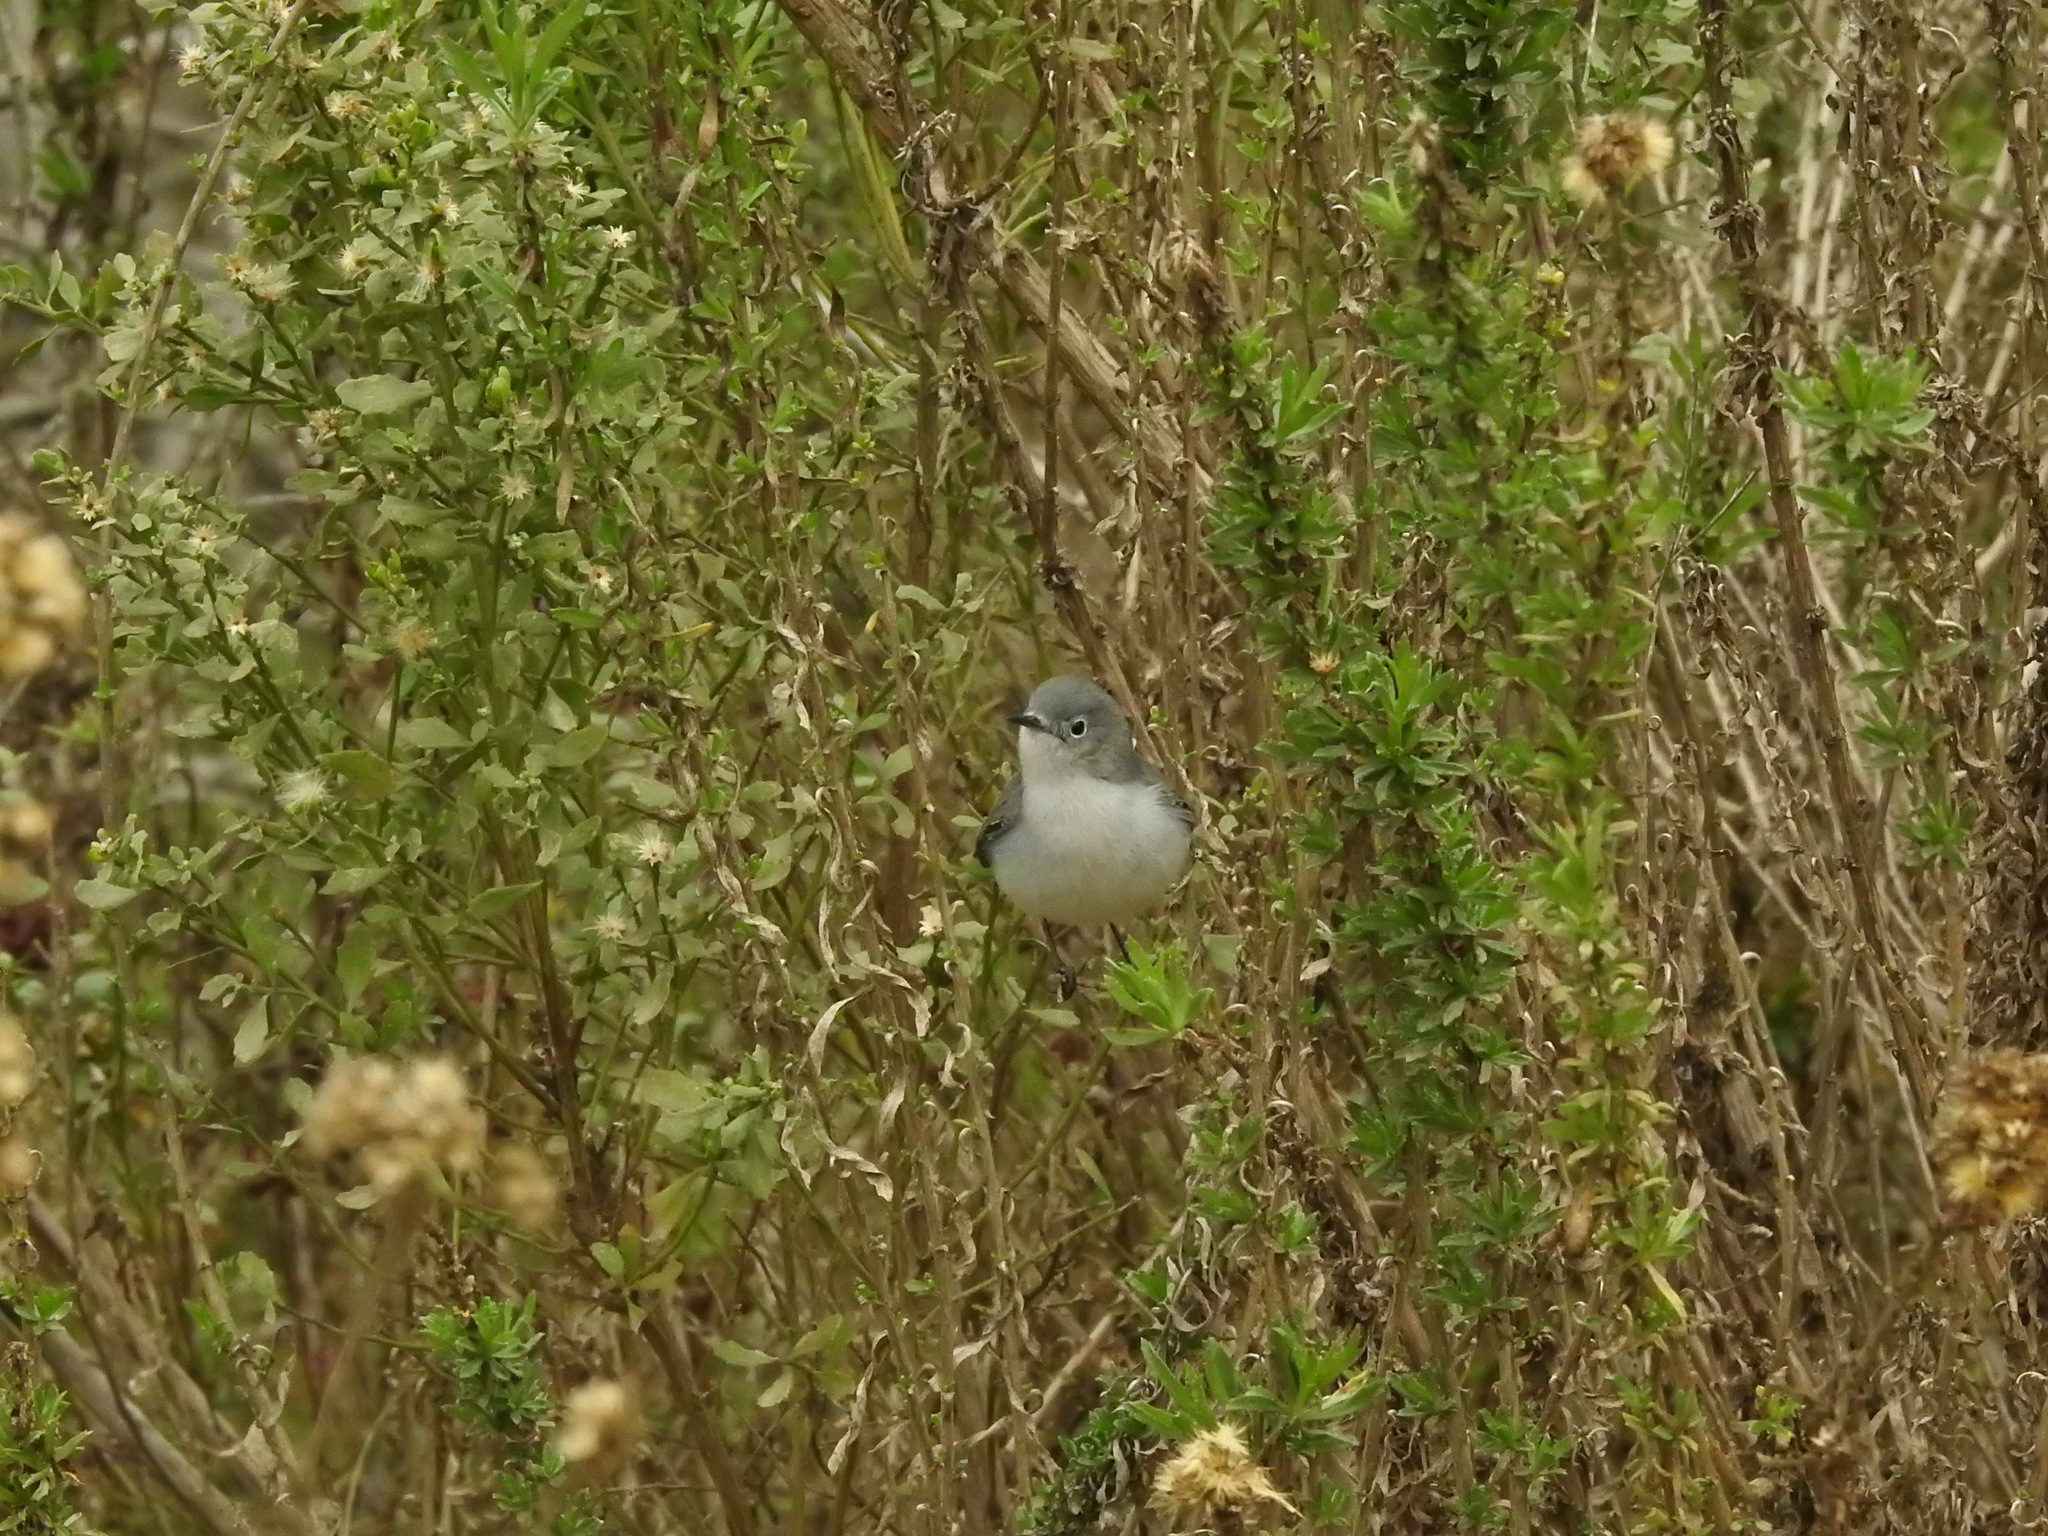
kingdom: Animalia
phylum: Chordata
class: Aves
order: Passeriformes
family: Polioptilidae
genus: Polioptila
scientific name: Polioptila caerulea
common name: Blue-gray gnatcatcher
